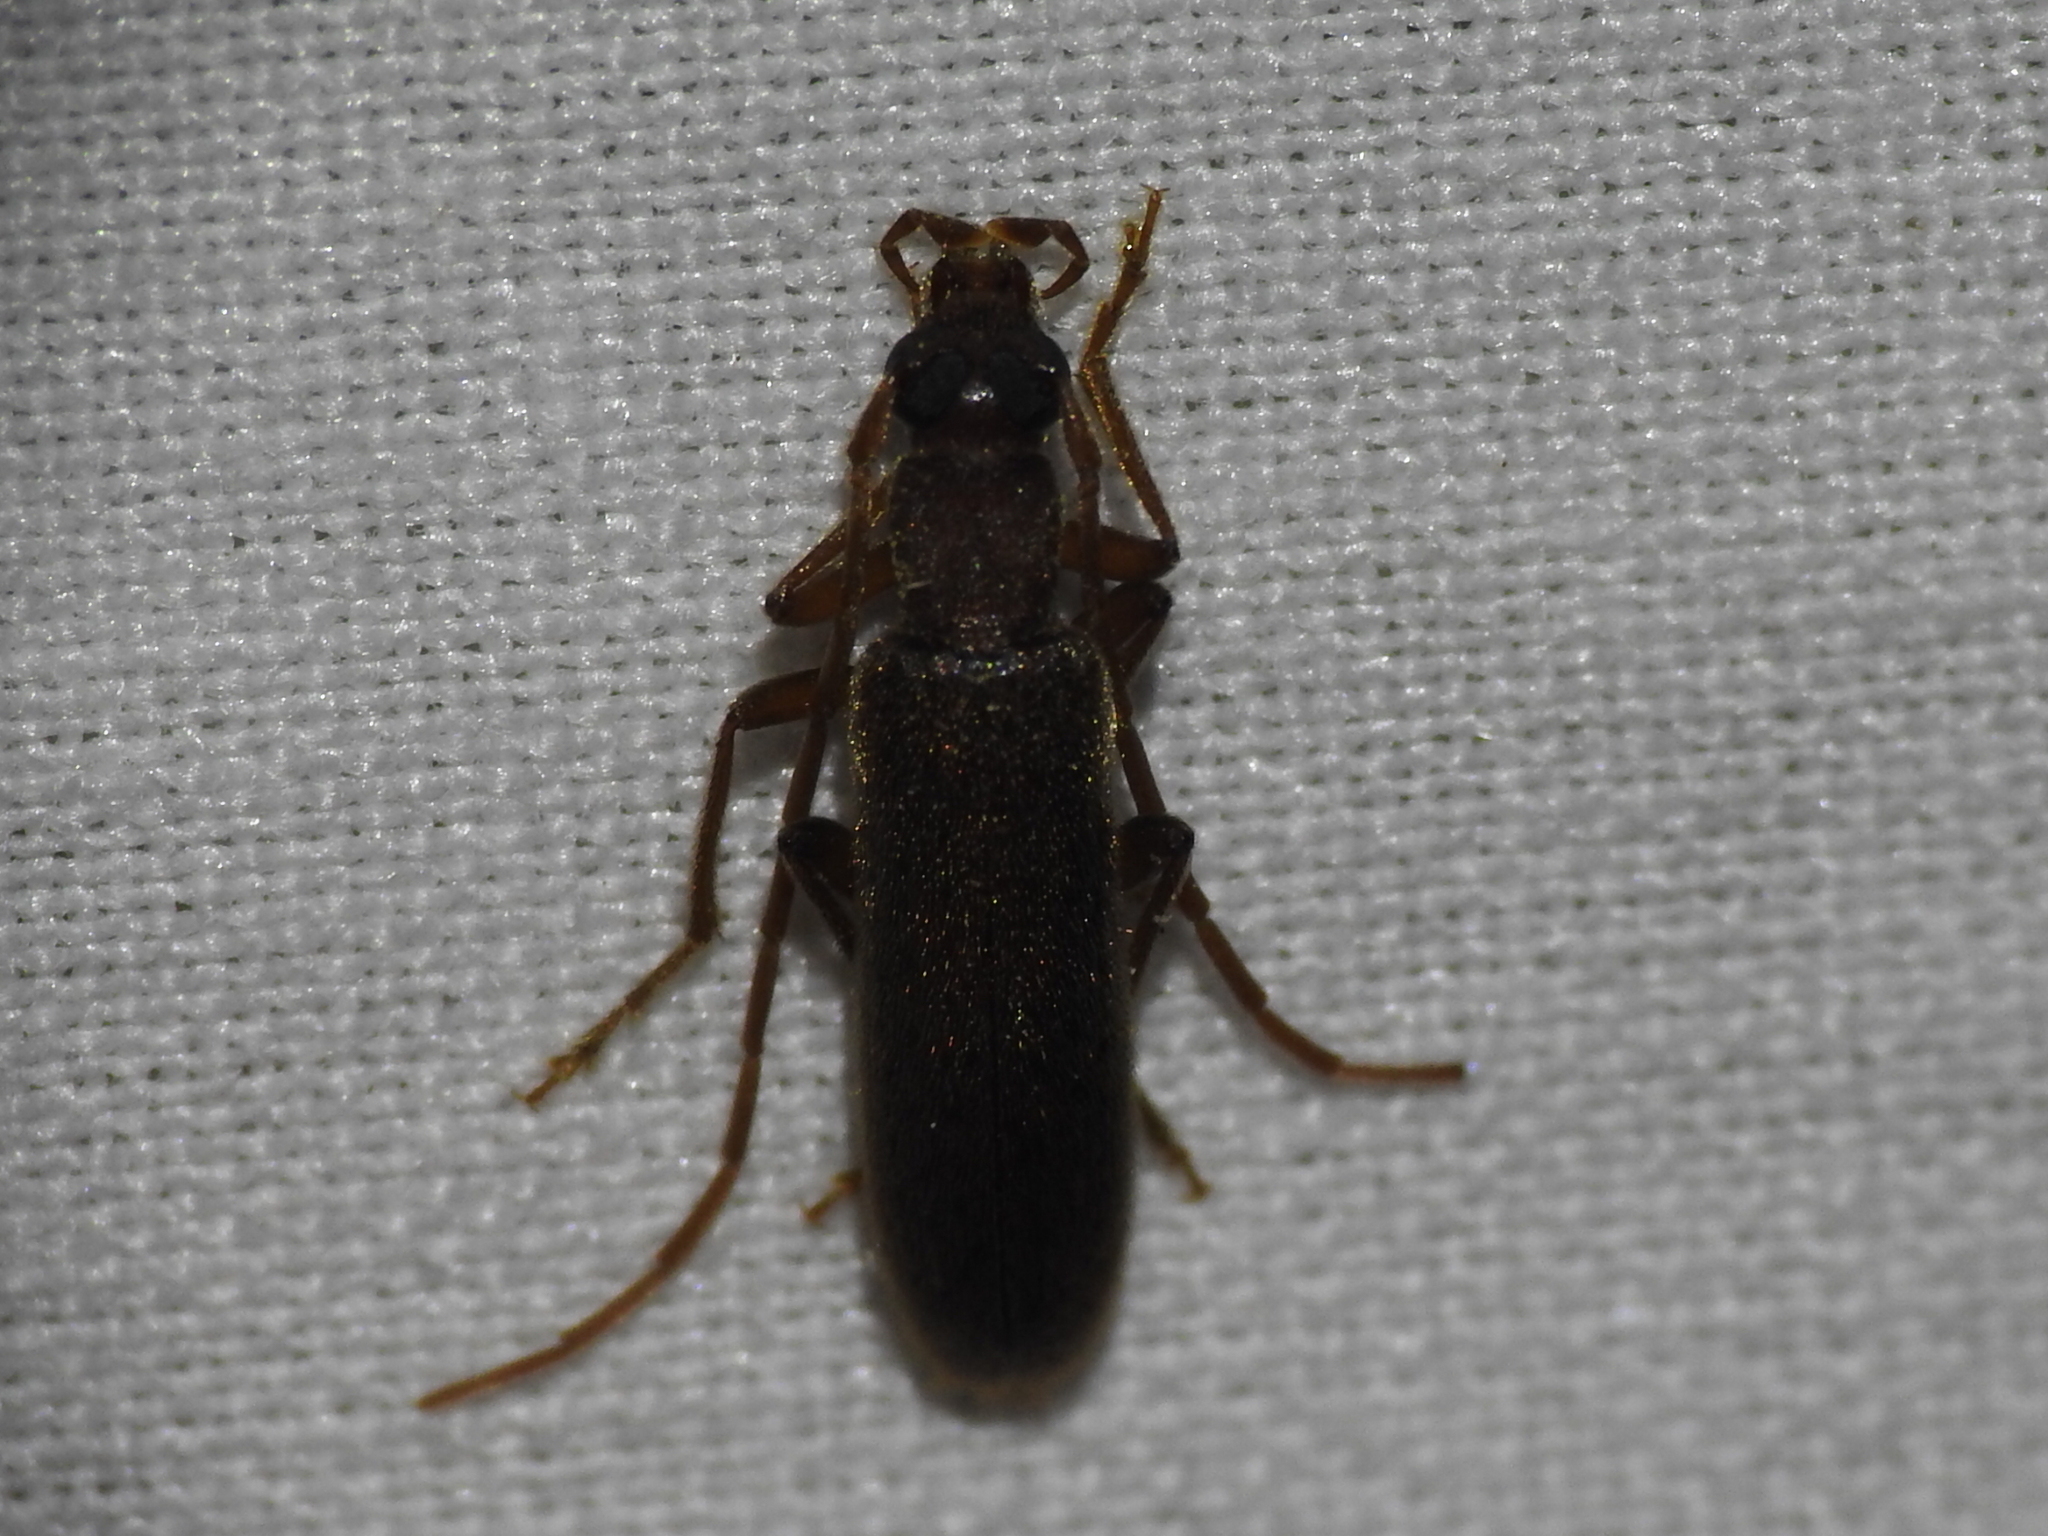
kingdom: Animalia
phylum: Arthropoda
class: Insecta
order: Coleoptera
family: Oedemeridae
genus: Sparedrus
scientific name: Sparedrus aspersus
